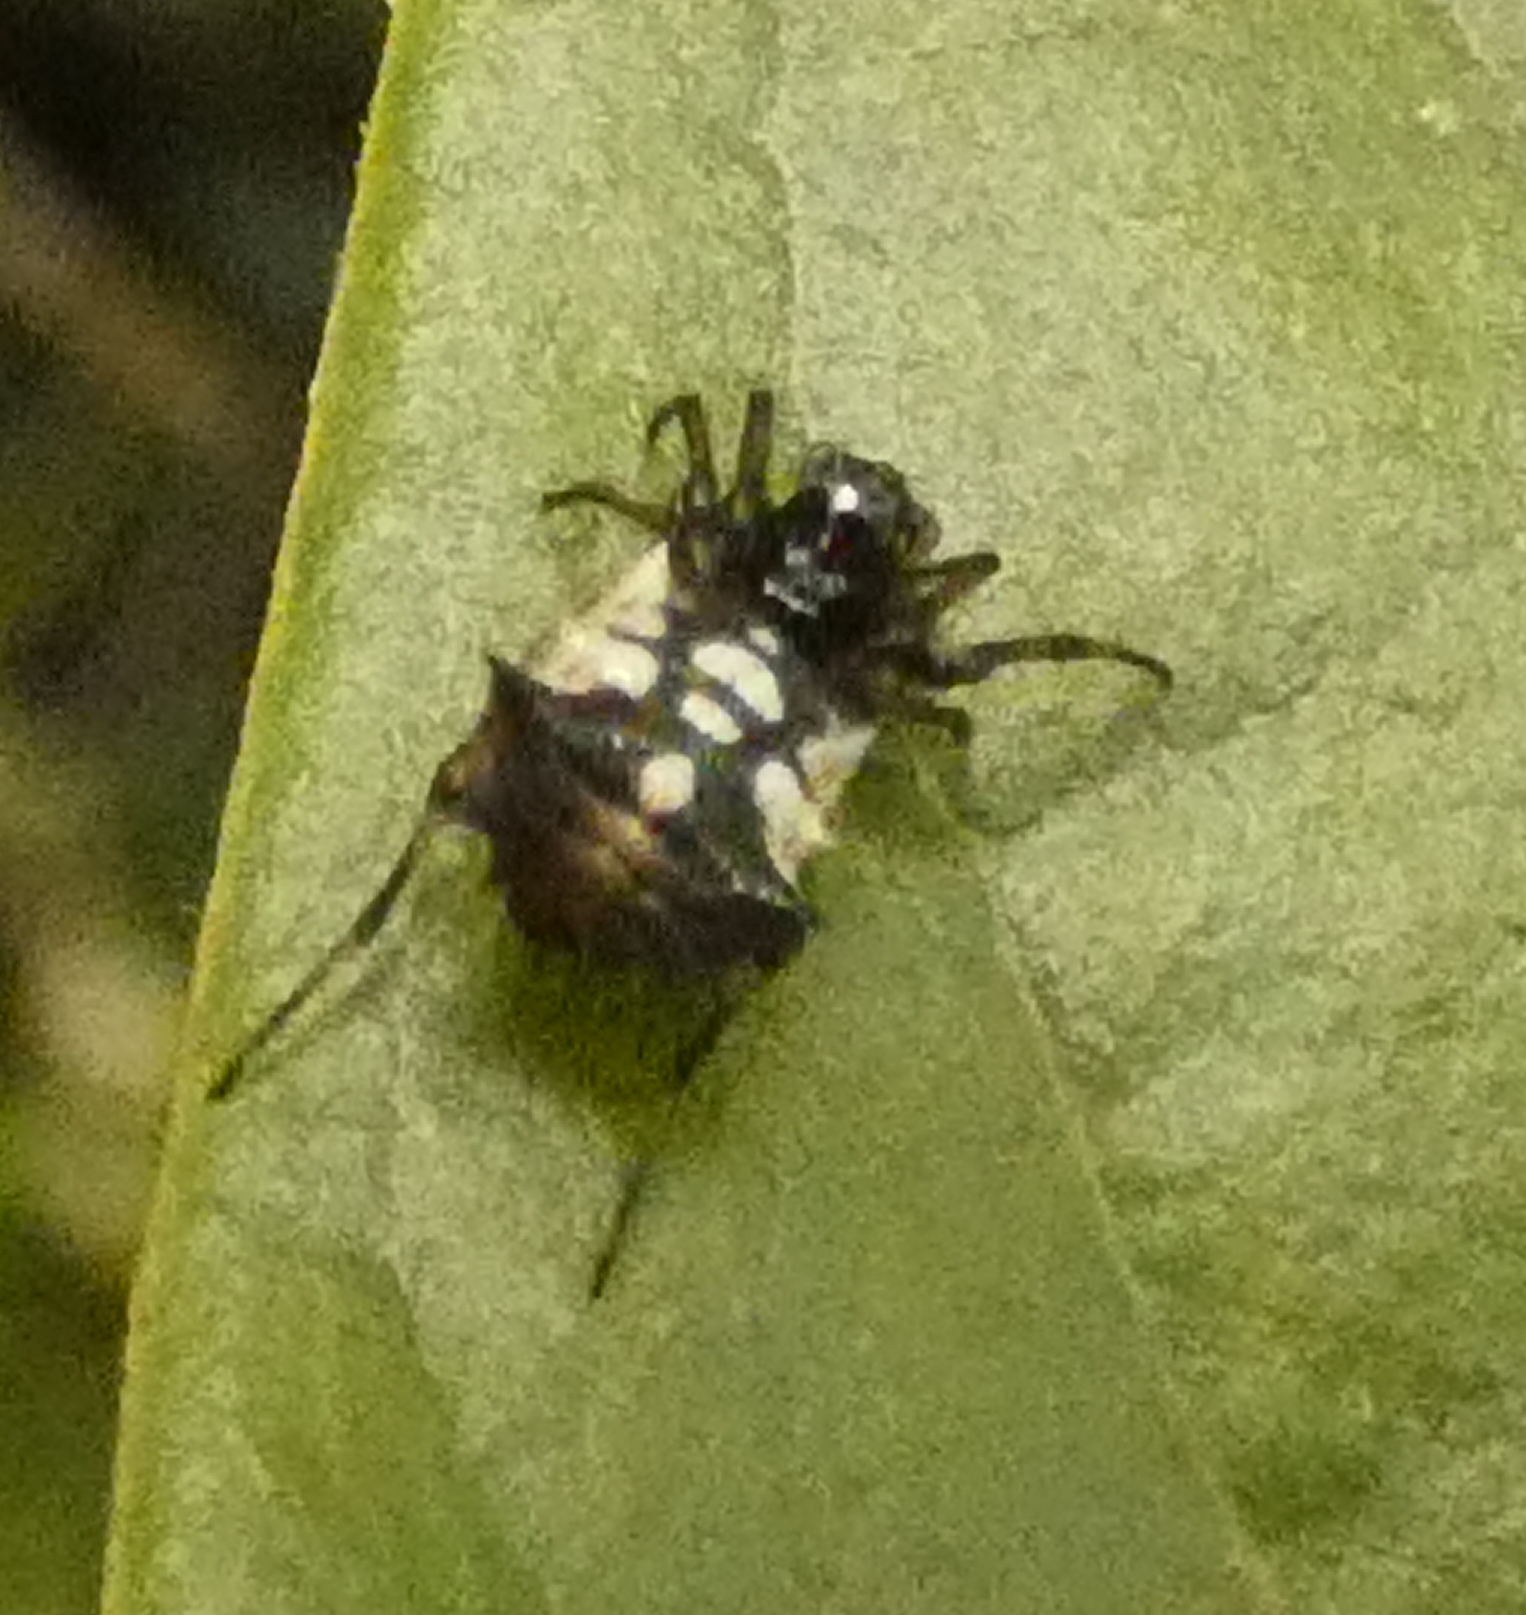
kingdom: Animalia
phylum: Arthropoda
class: Arachnida
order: Araneae
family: Araneidae
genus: Micrathena
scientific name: Micrathena picta
